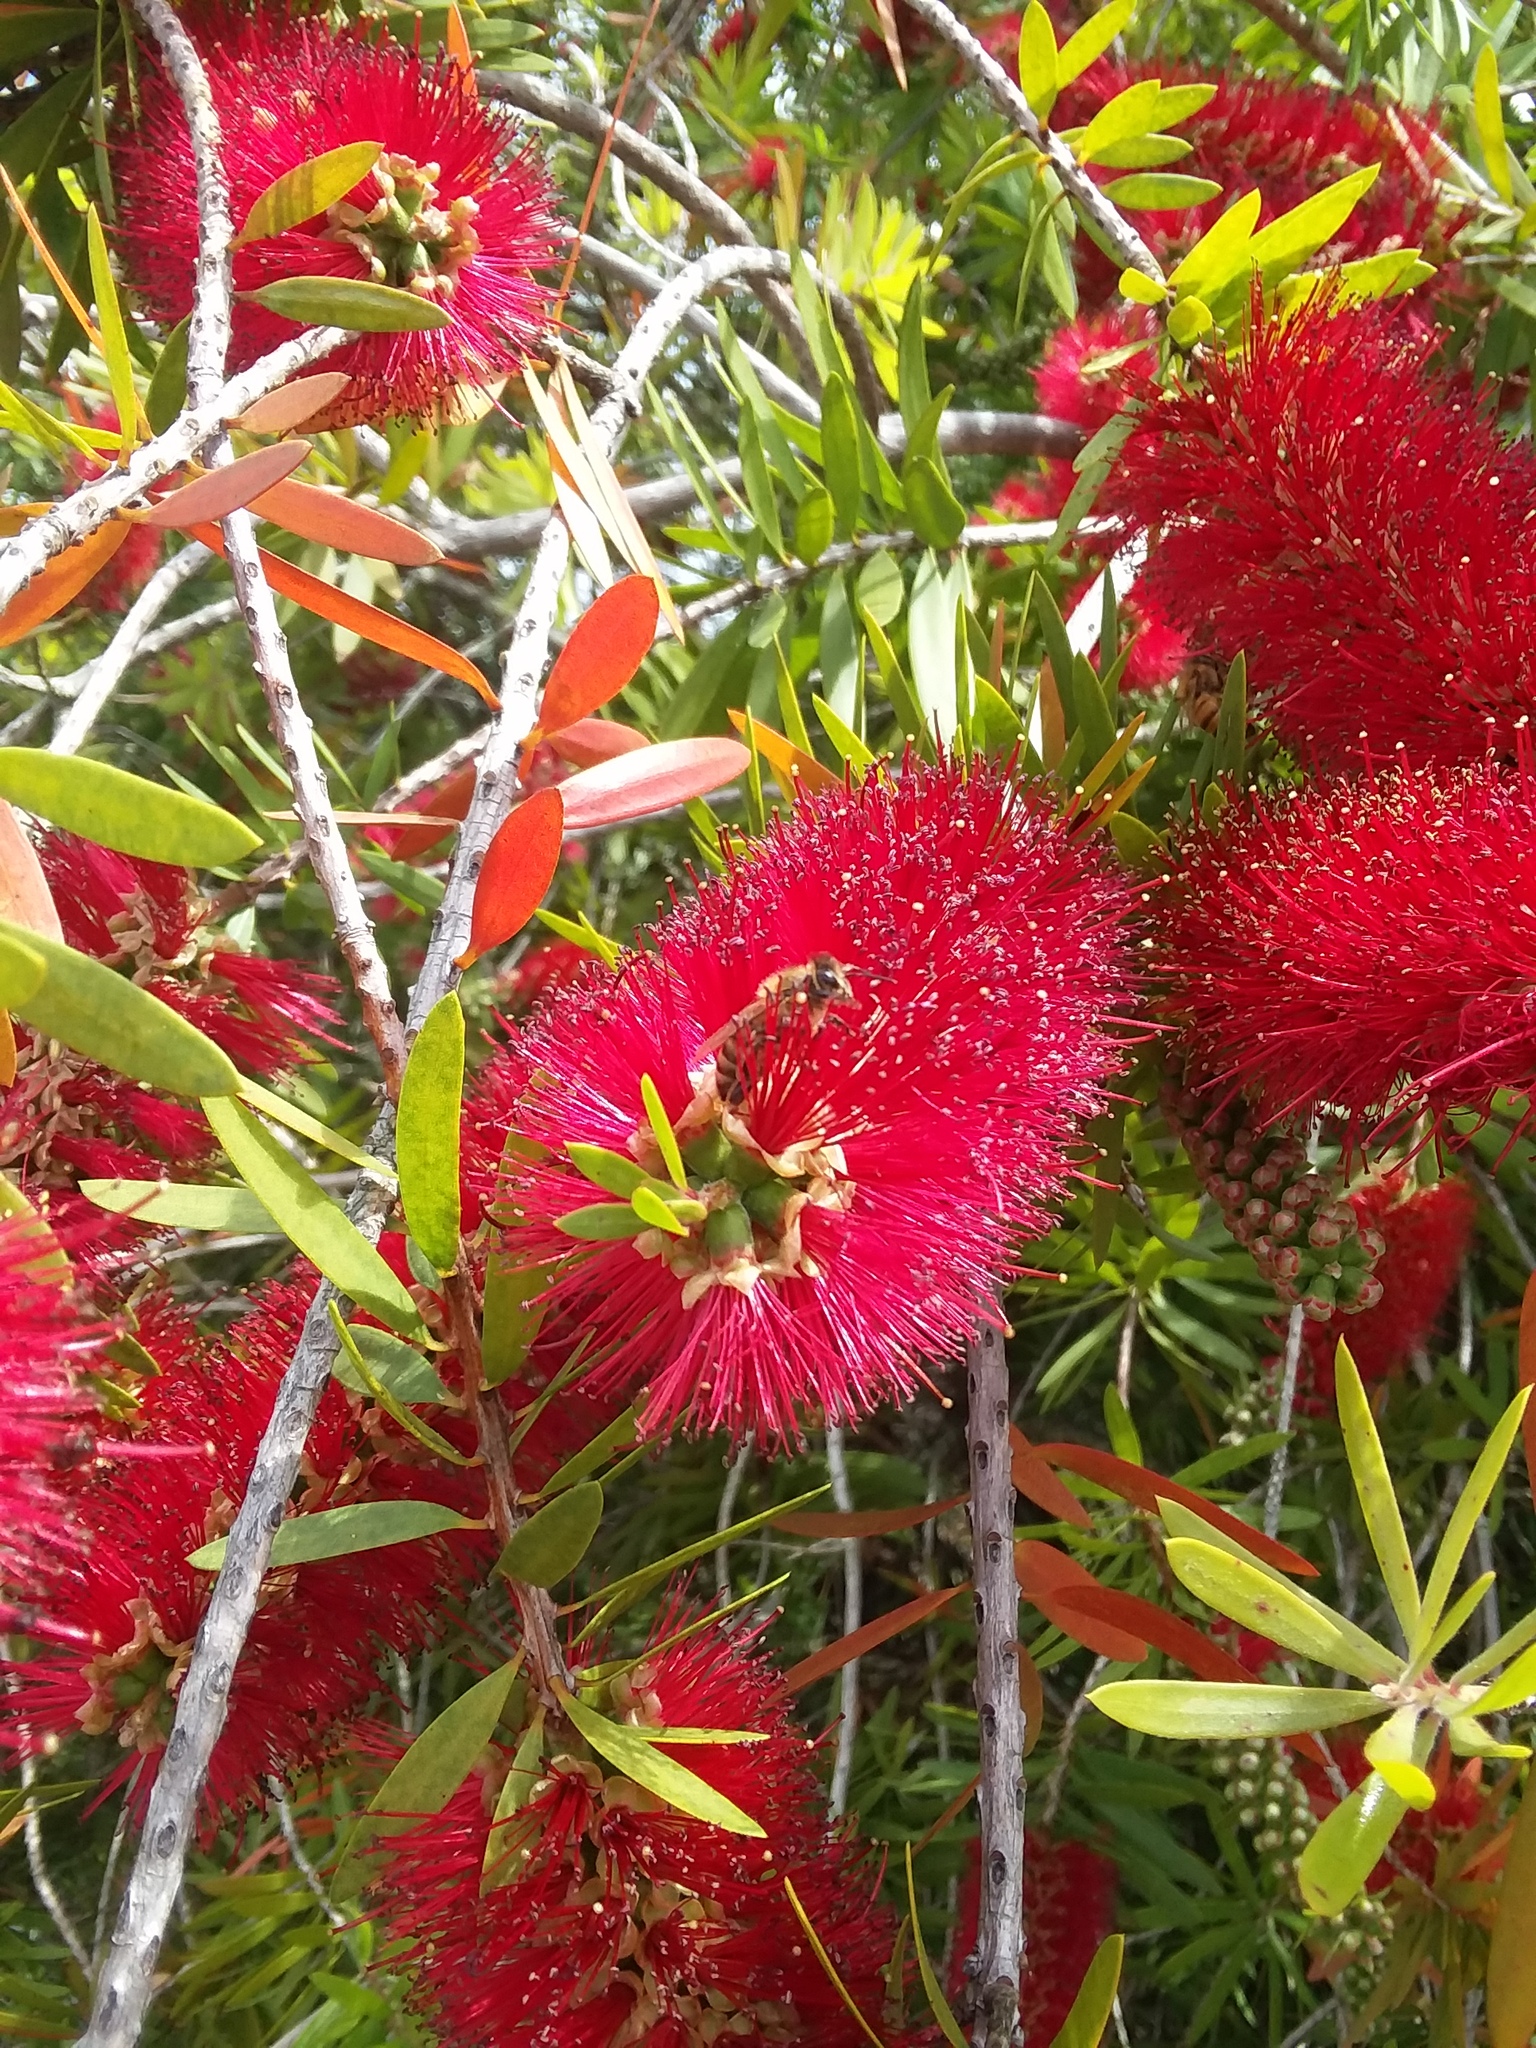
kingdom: Animalia
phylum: Arthropoda
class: Insecta
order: Hymenoptera
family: Apidae
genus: Apis
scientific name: Apis mellifera
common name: Honey bee
